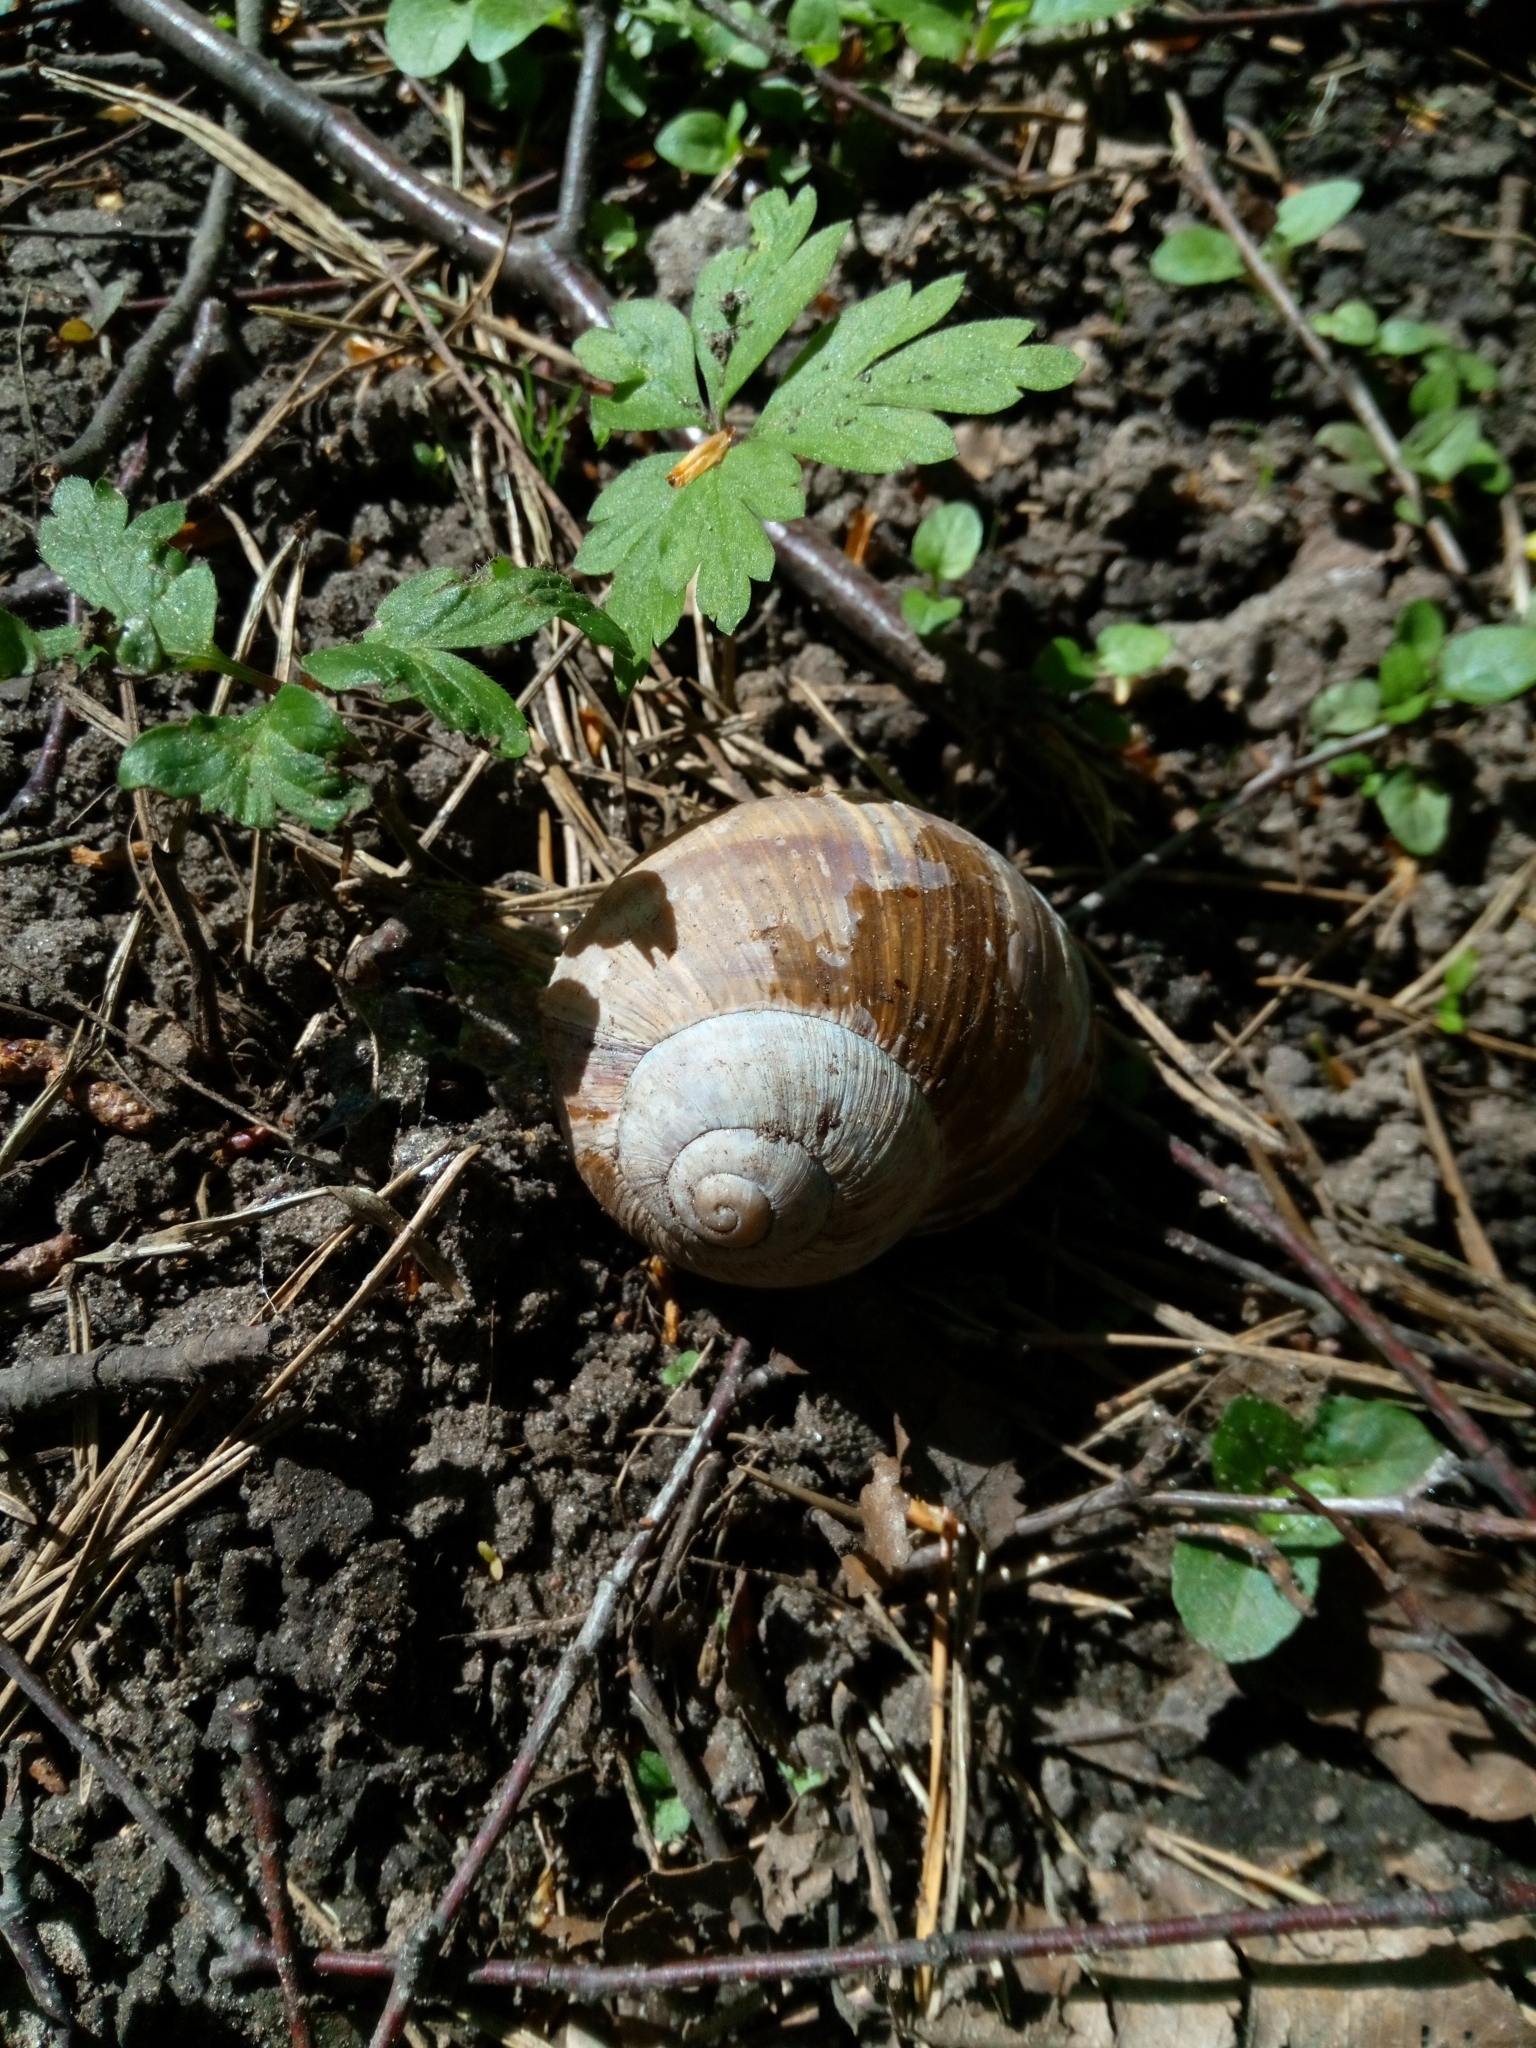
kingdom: Animalia
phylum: Mollusca
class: Gastropoda
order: Stylommatophora
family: Helicidae
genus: Helix
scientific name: Helix pomatia
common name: Roman snail
